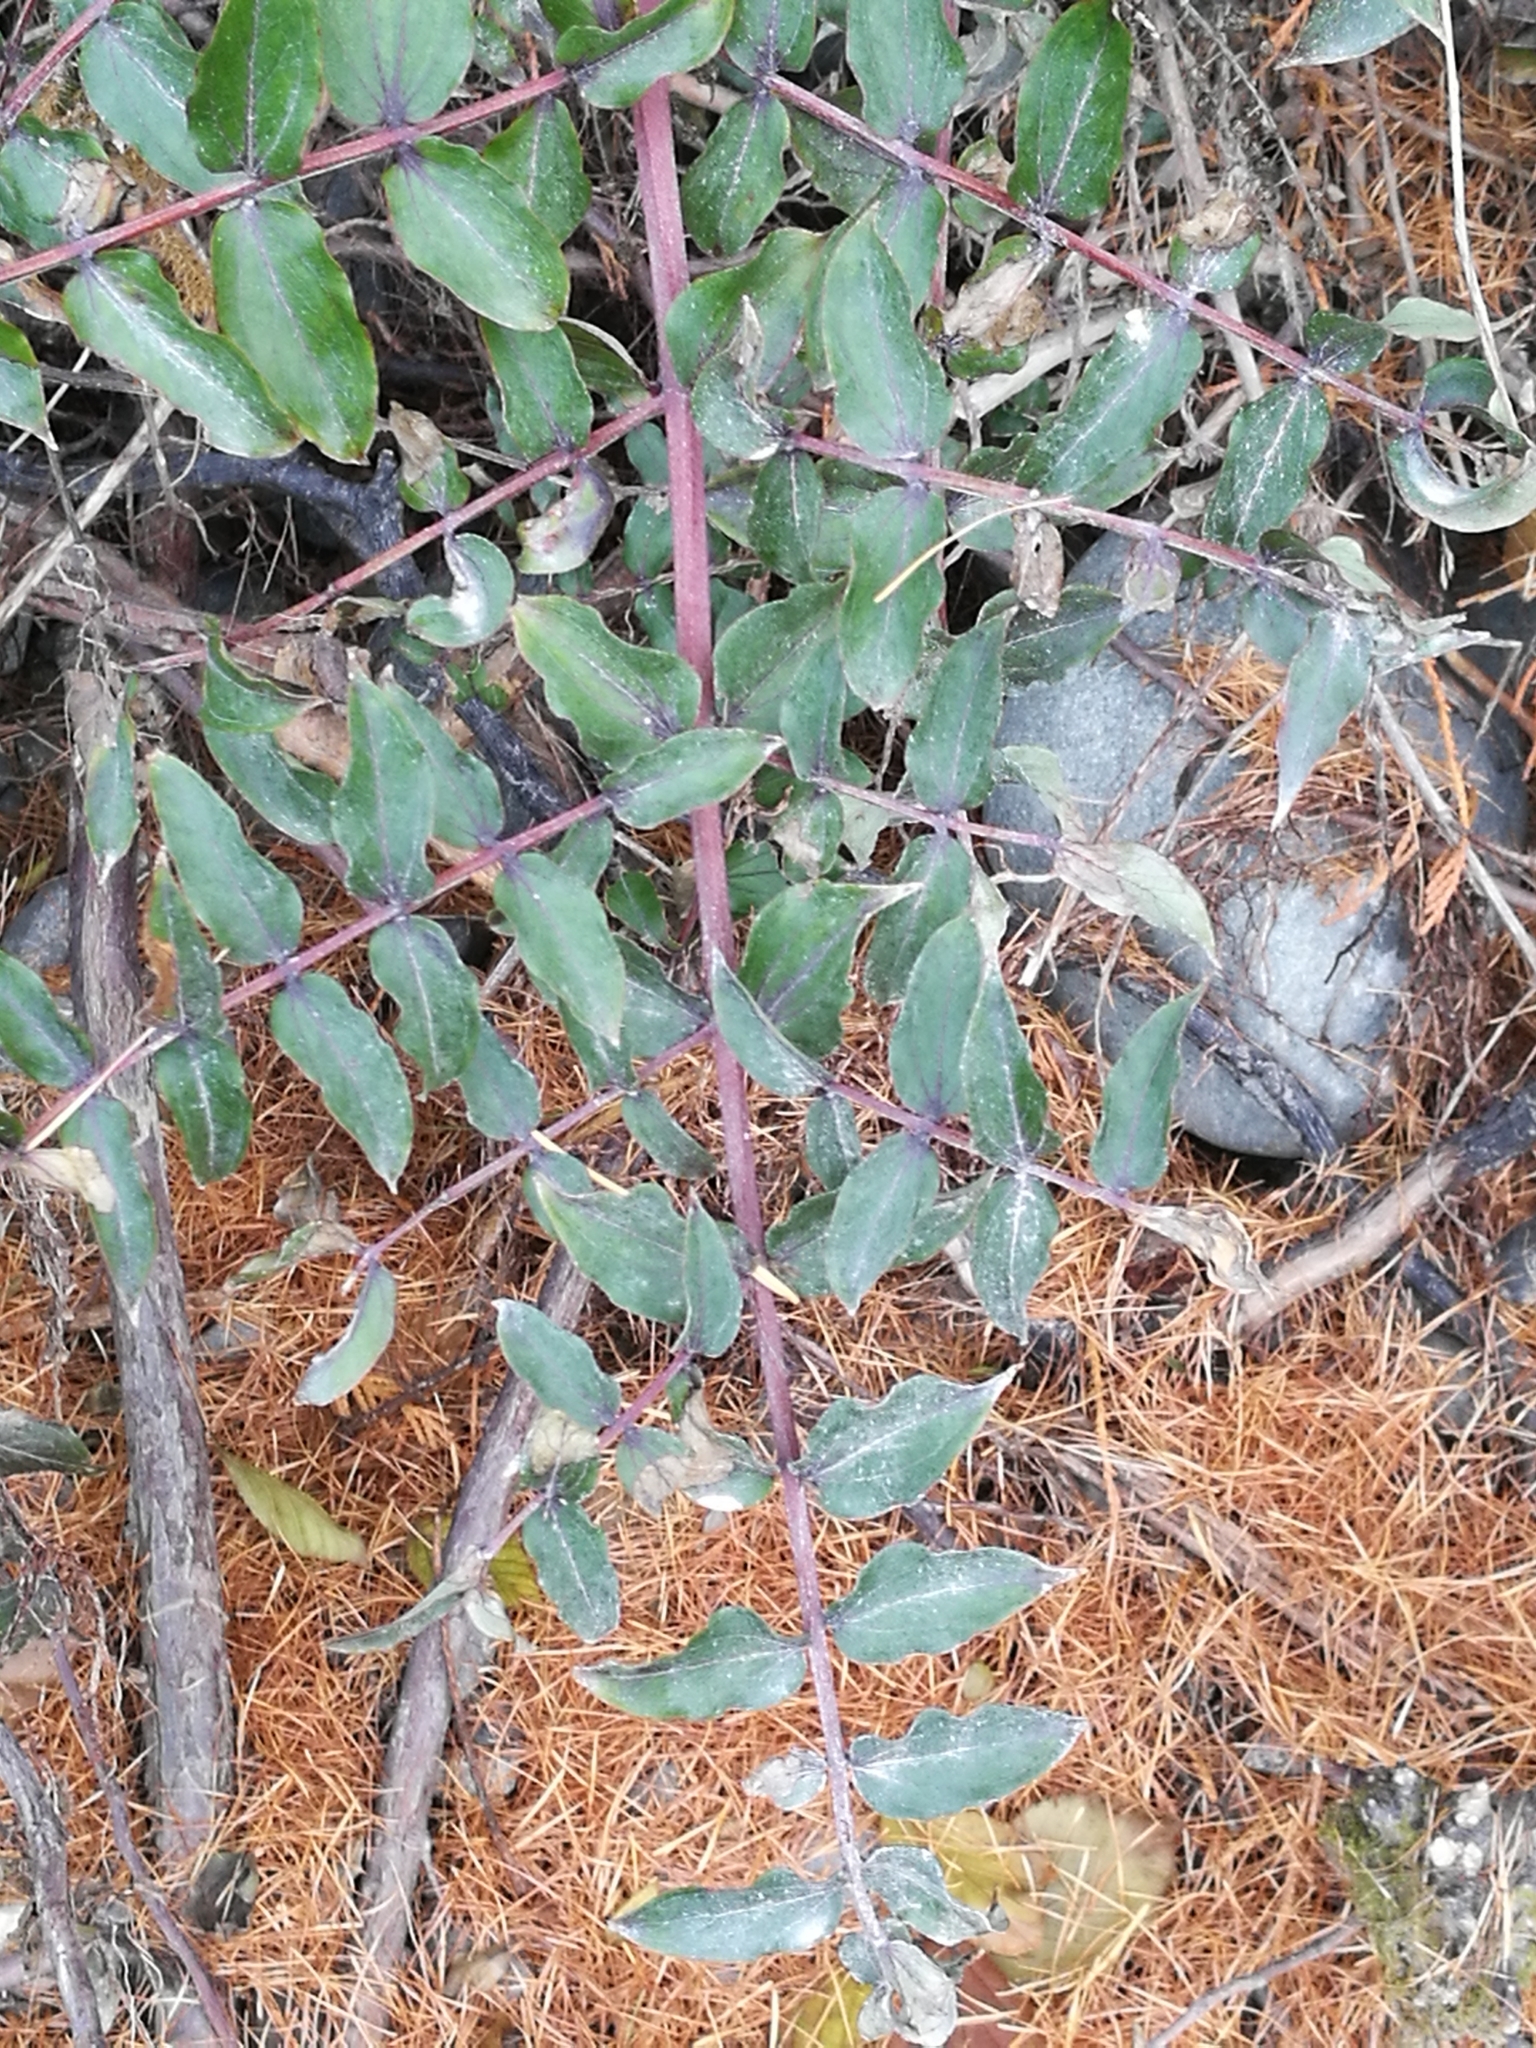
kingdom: Plantae
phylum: Tracheophyta
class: Magnoliopsida
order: Cucurbitales
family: Coriariaceae
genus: Coriaria
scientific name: Coriaria sarmentosa
